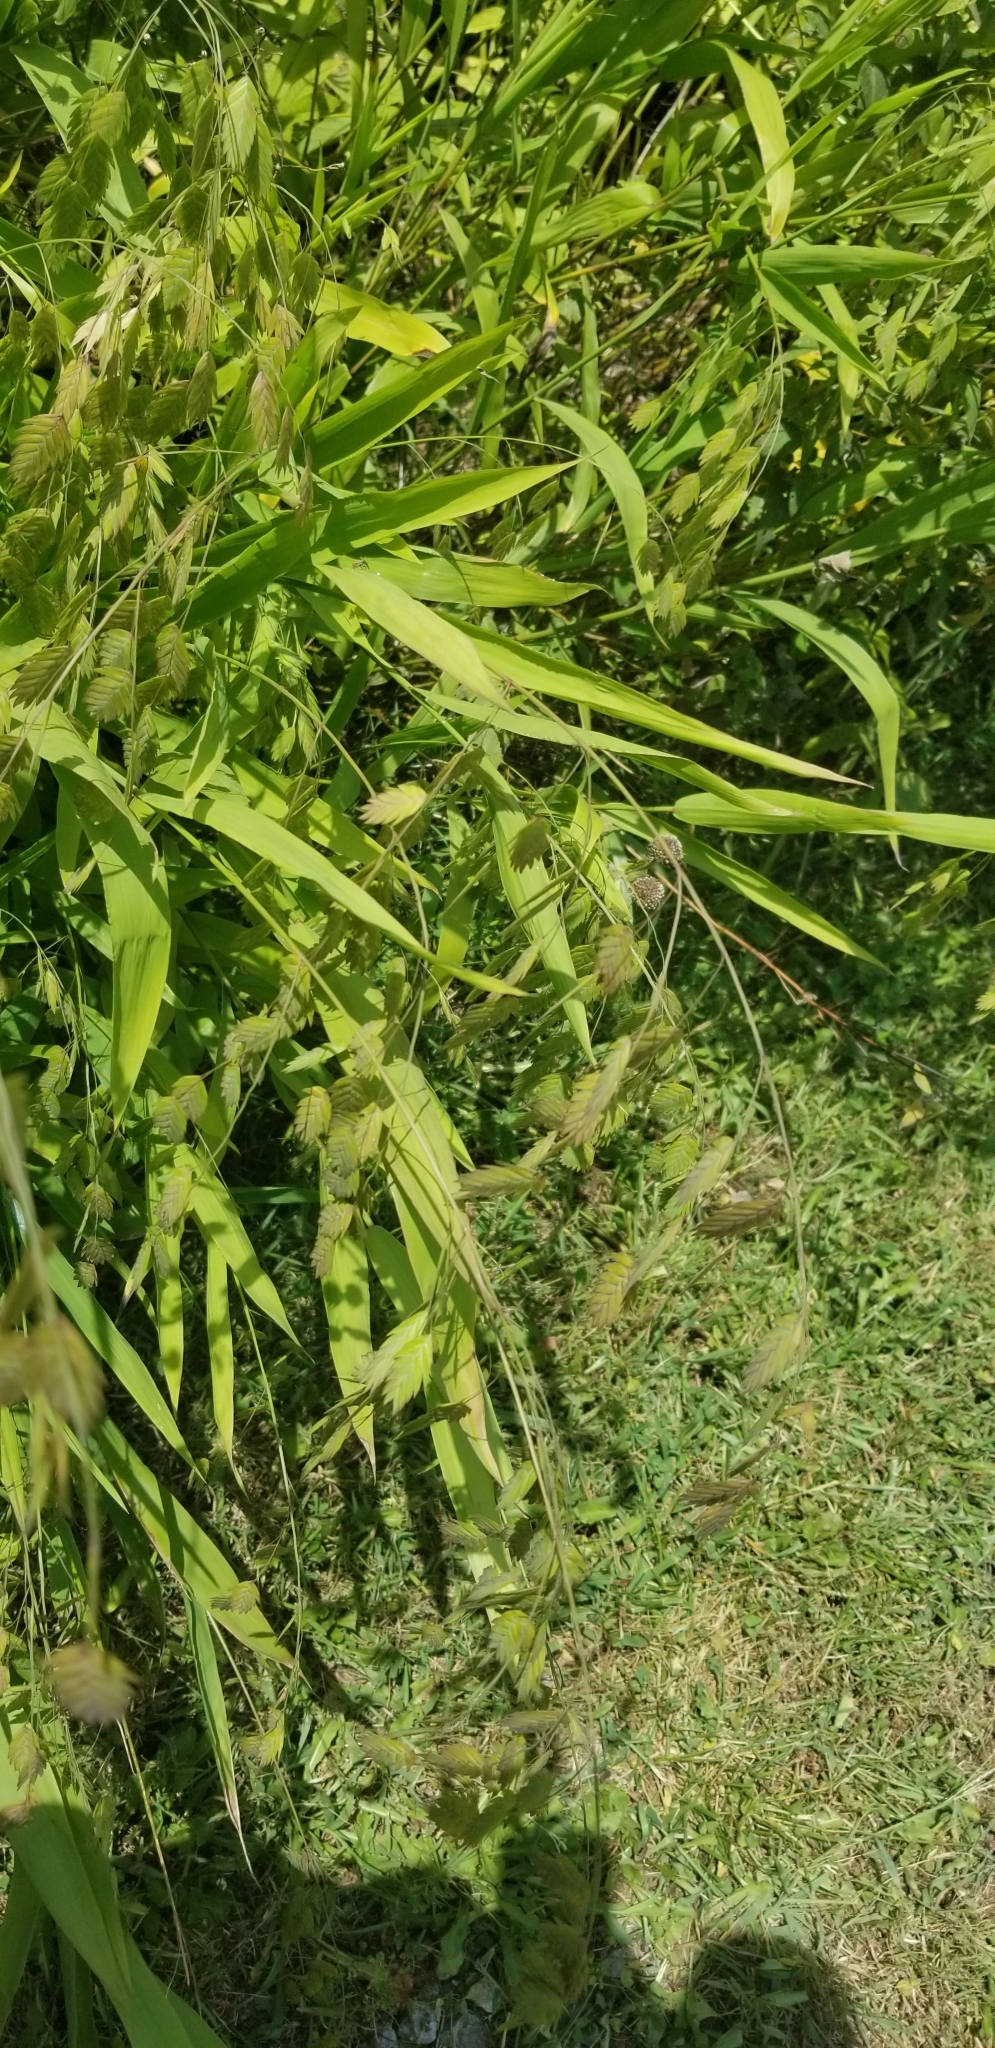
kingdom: Plantae
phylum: Tracheophyta
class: Liliopsida
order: Poales
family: Poaceae
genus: Chasmanthium
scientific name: Chasmanthium latifolium
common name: Broad-leaved chasmanthium
